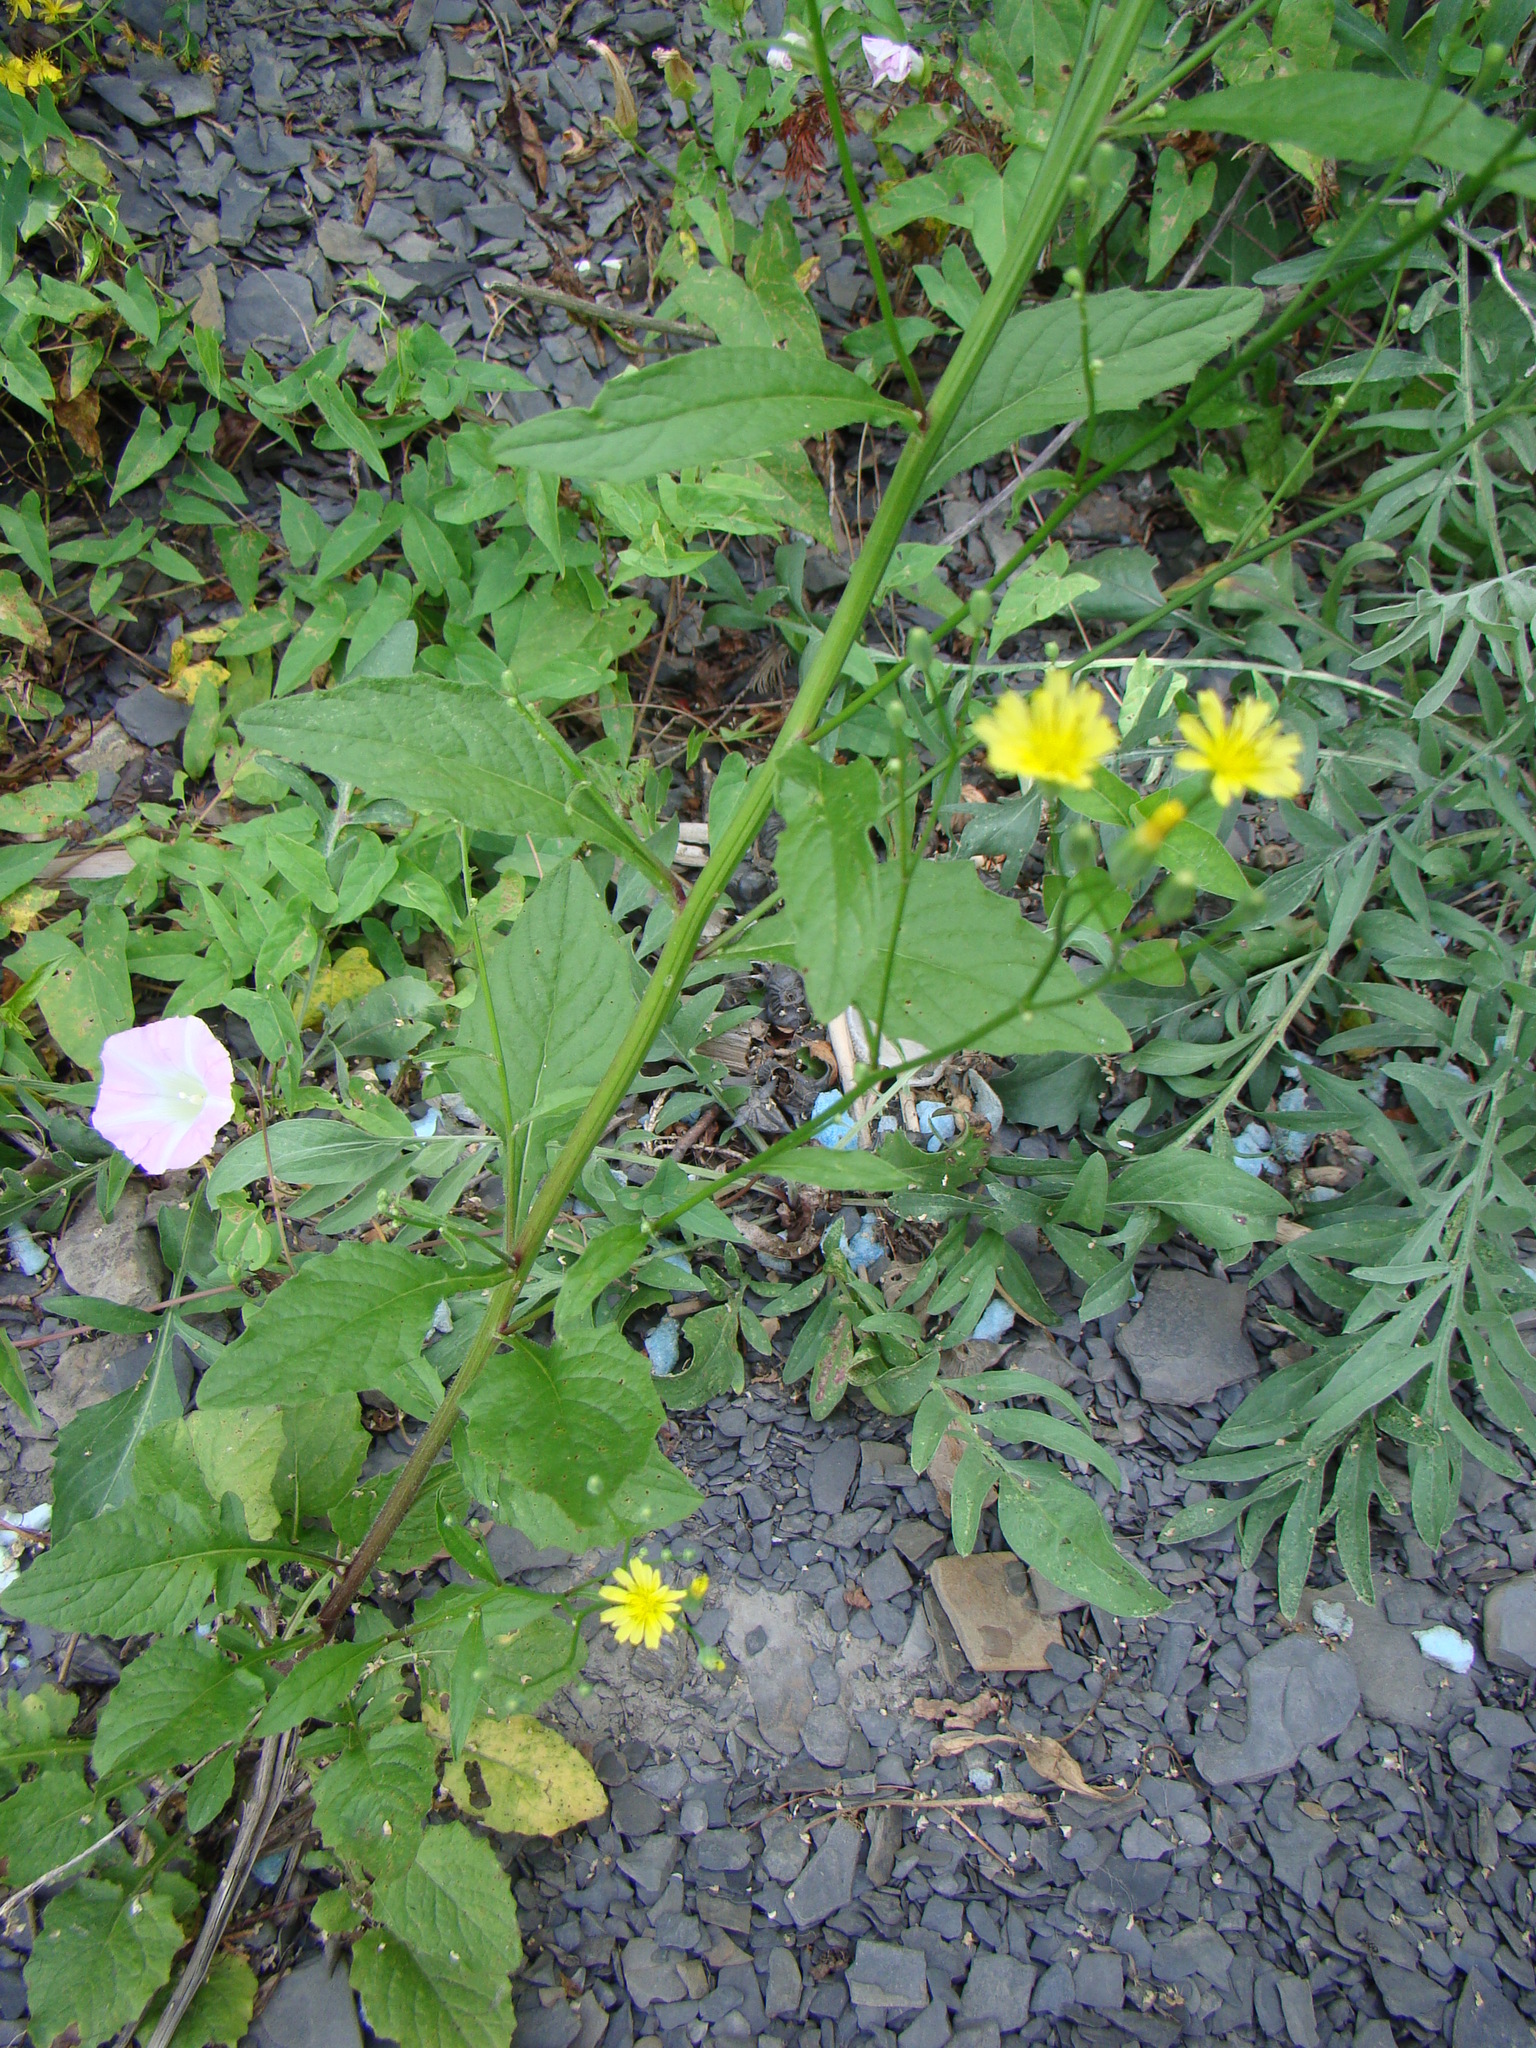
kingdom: Plantae
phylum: Tracheophyta
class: Magnoliopsida
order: Asterales
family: Asteraceae
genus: Lapsana
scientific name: Lapsana communis
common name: Nipplewort
